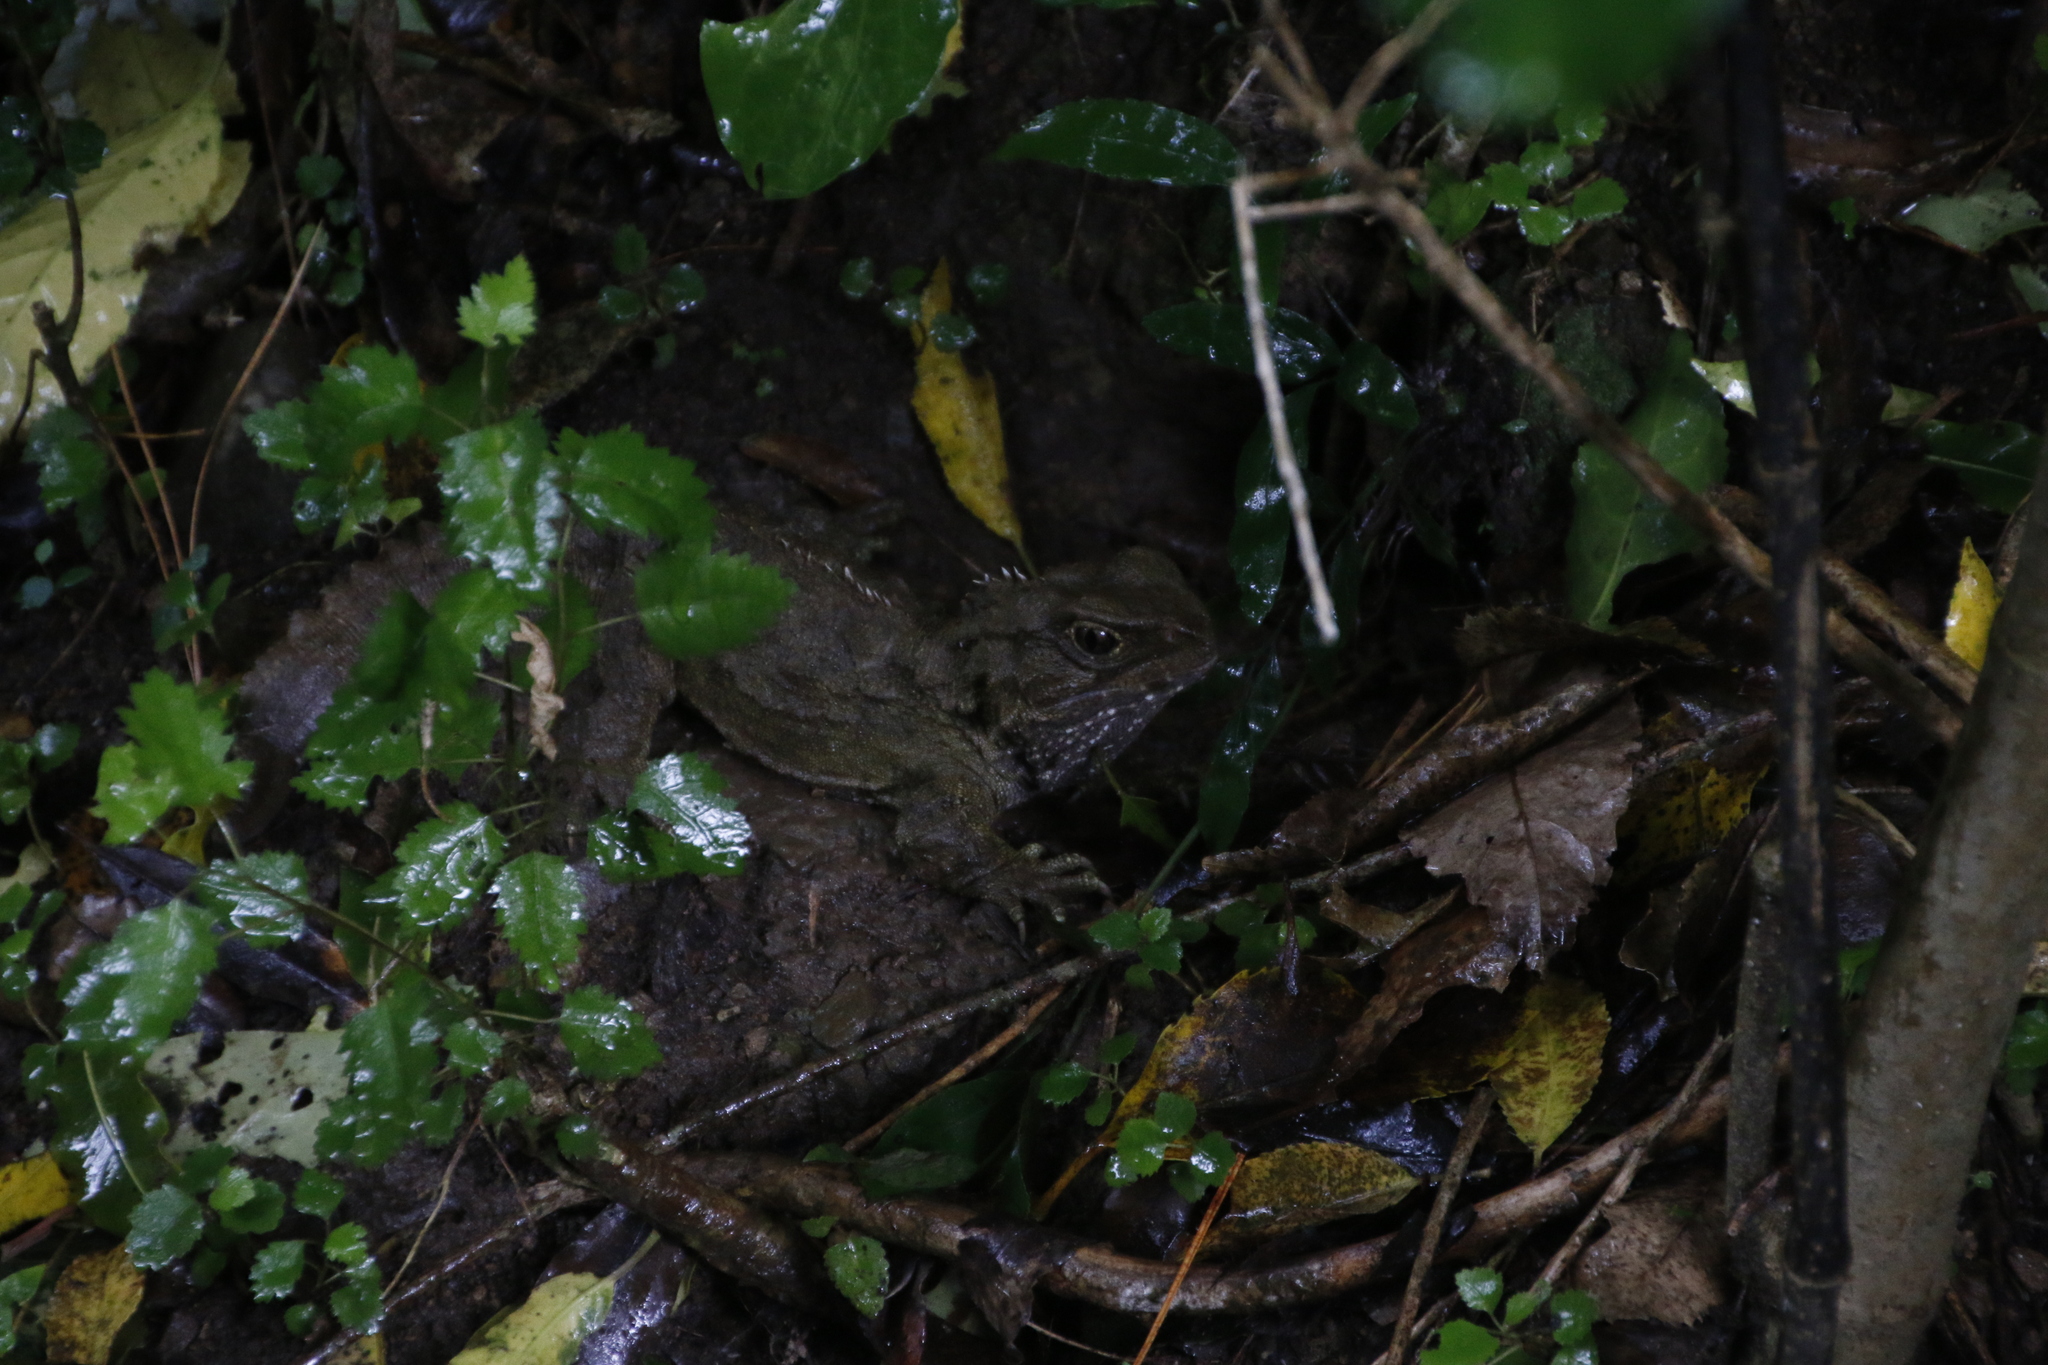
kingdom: Animalia
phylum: Chordata
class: Sphenodontia
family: Sphenodontidae
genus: Sphenodon
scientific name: Sphenodon punctatus
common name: Tuatara
